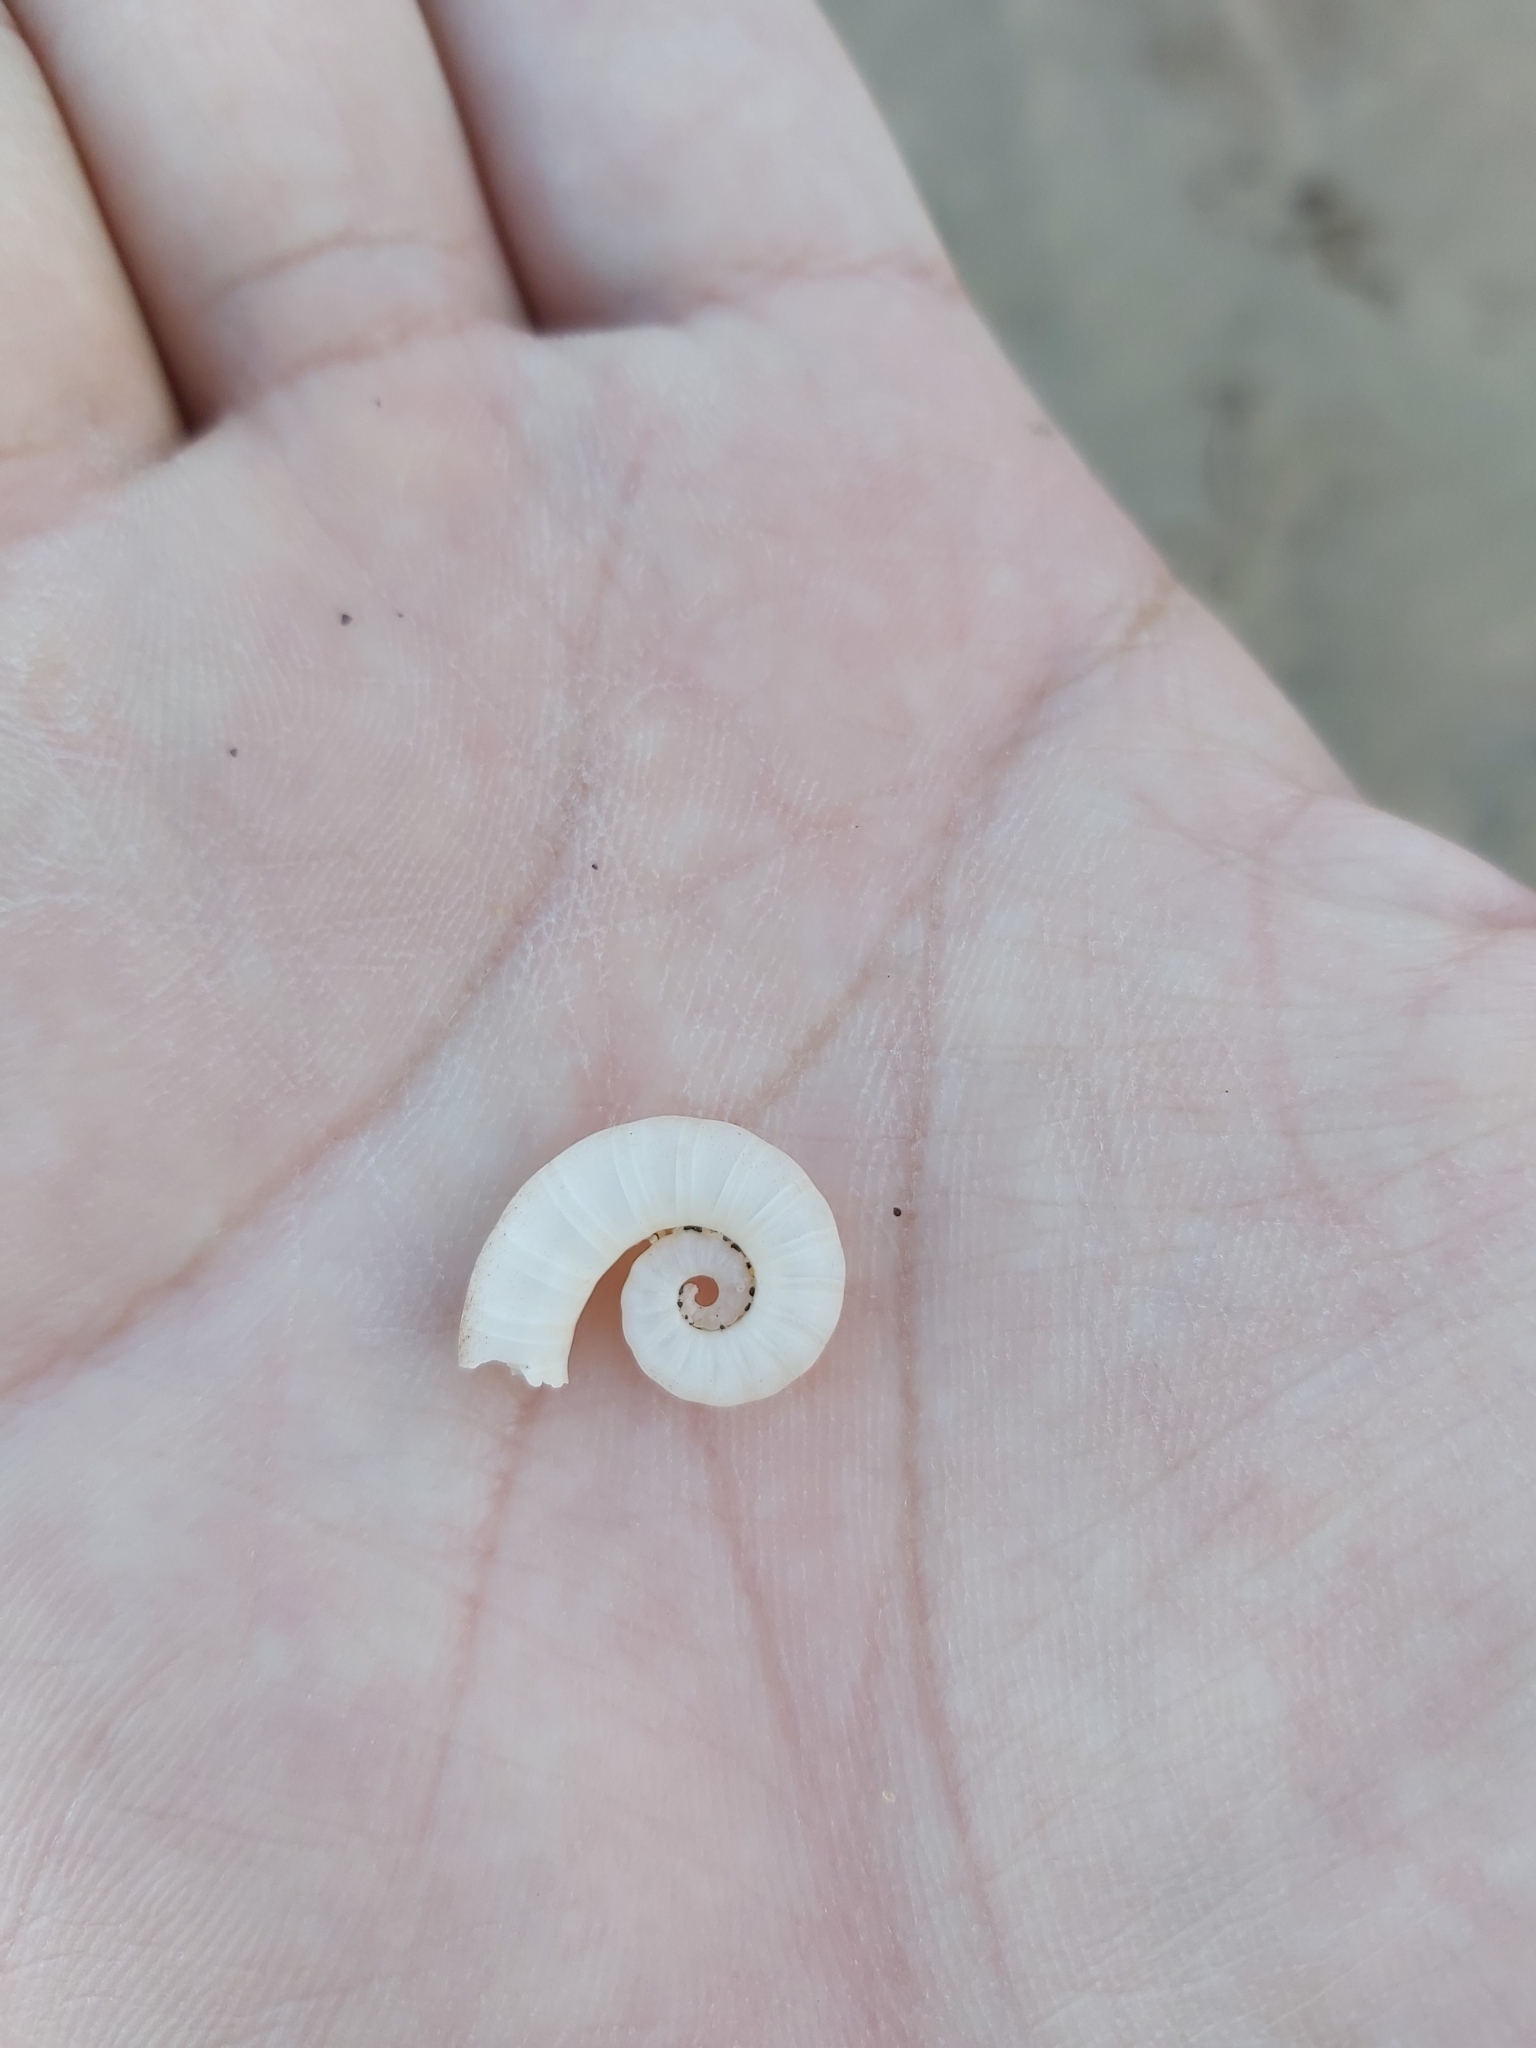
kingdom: Animalia
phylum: Mollusca
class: Cephalopoda
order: Spirulida
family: Spirulidae
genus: Spirula
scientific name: Spirula spirula
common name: Ram's horn squid
